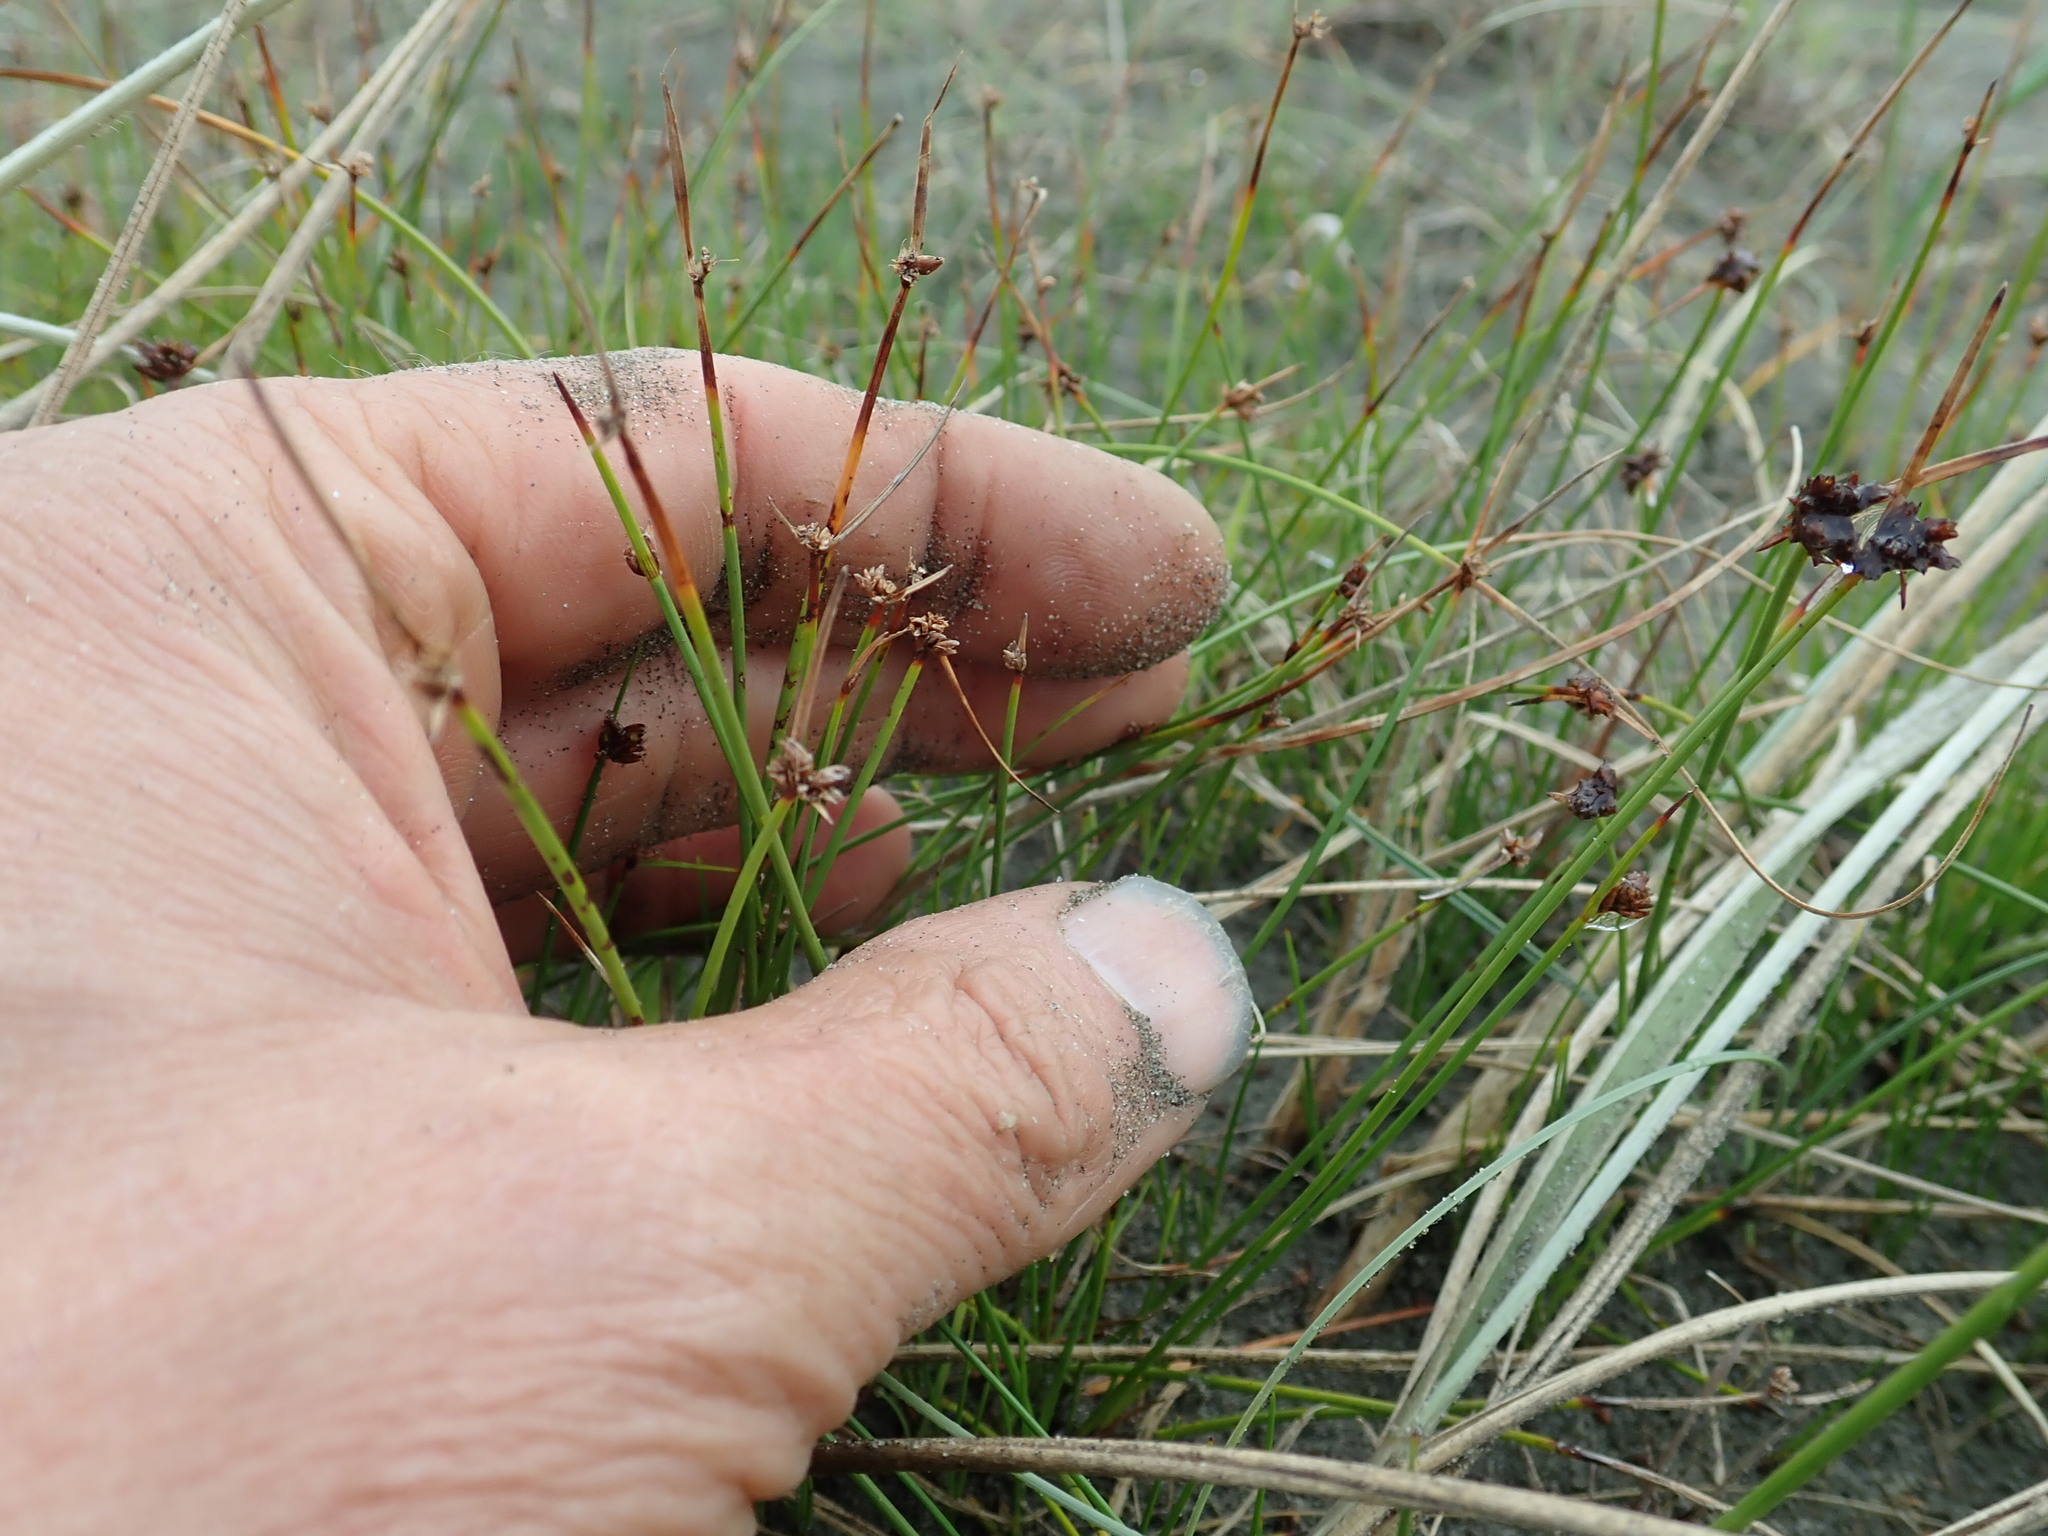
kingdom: Plantae
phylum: Tracheophyta
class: Liliopsida
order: Poales
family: Cyperaceae
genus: Schoenus
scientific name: Schoenus nitens
